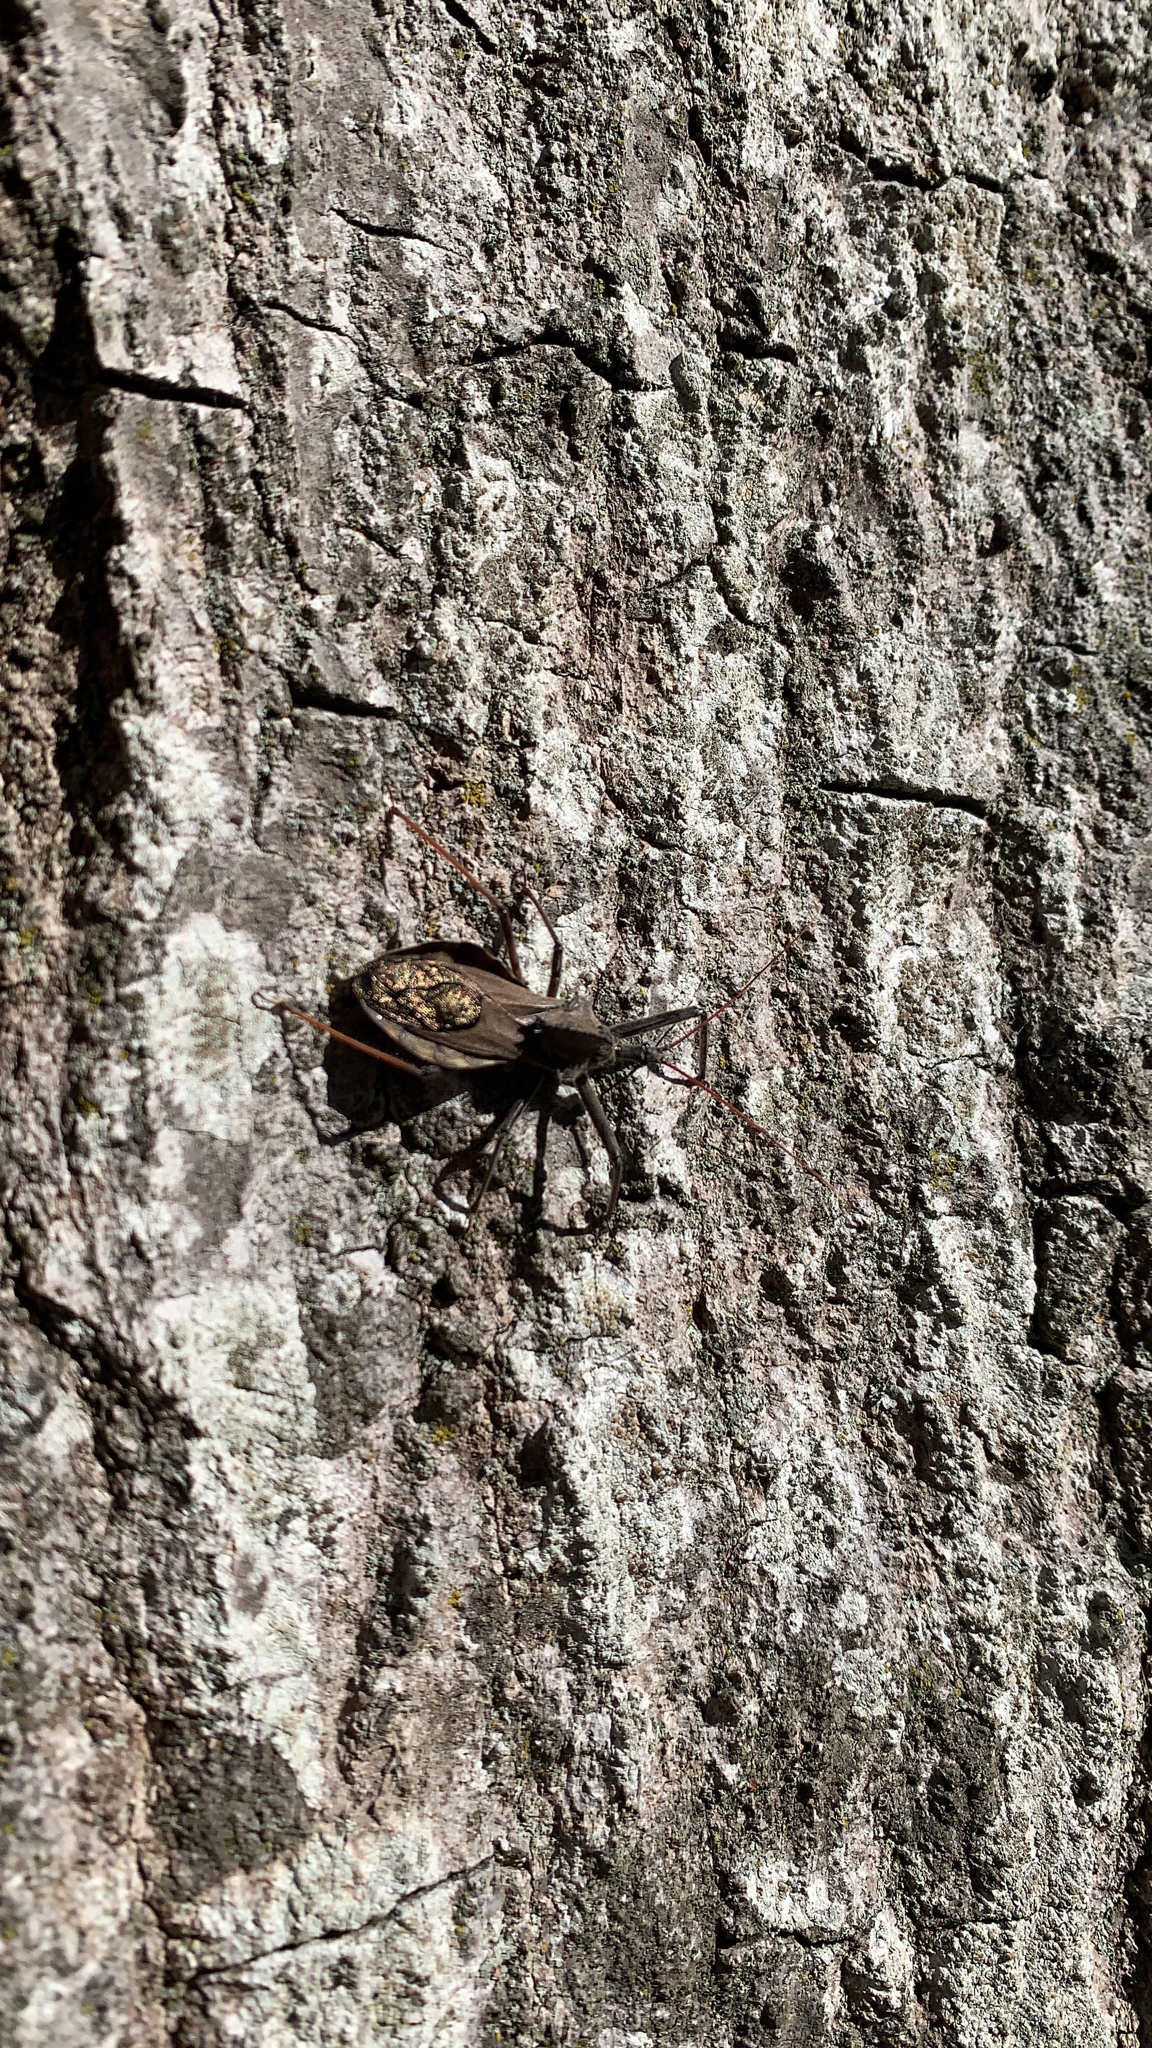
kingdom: Animalia
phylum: Arthropoda
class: Insecta
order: Hemiptera
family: Reduviidae
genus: Arilus
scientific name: Arilus cristatus
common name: North american wheel bug
